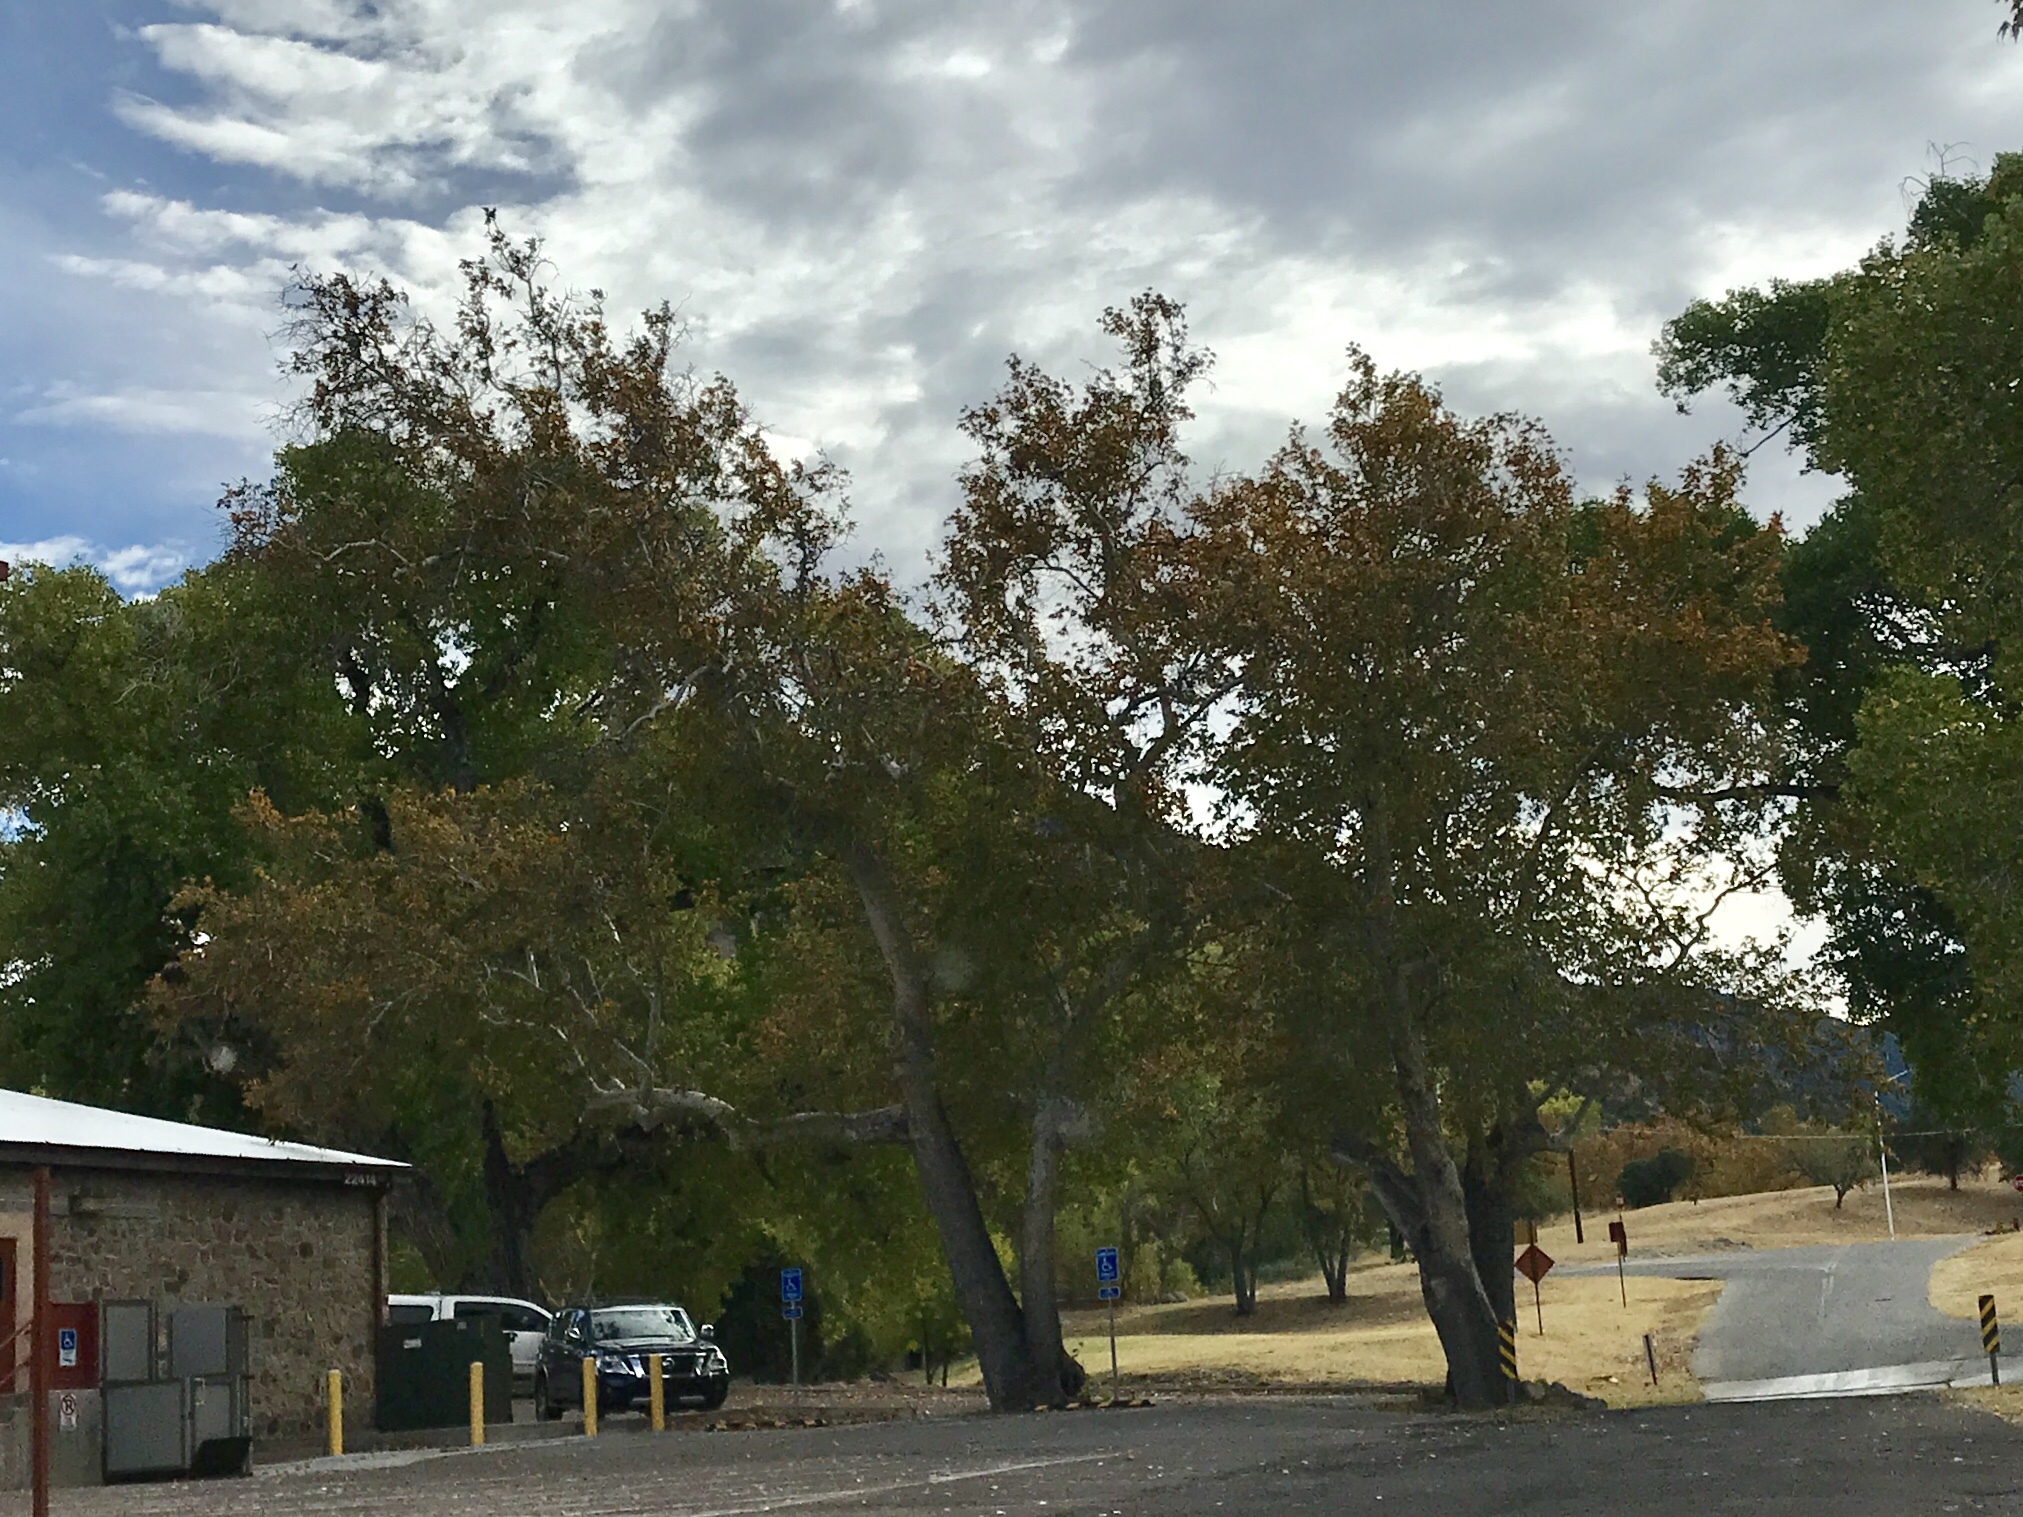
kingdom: Plantae
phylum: Tracheophyta
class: Magnoliopsida
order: Proteales
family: Platanaceae
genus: Platanus
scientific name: Platanus wrightii
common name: Arizona sycamore
